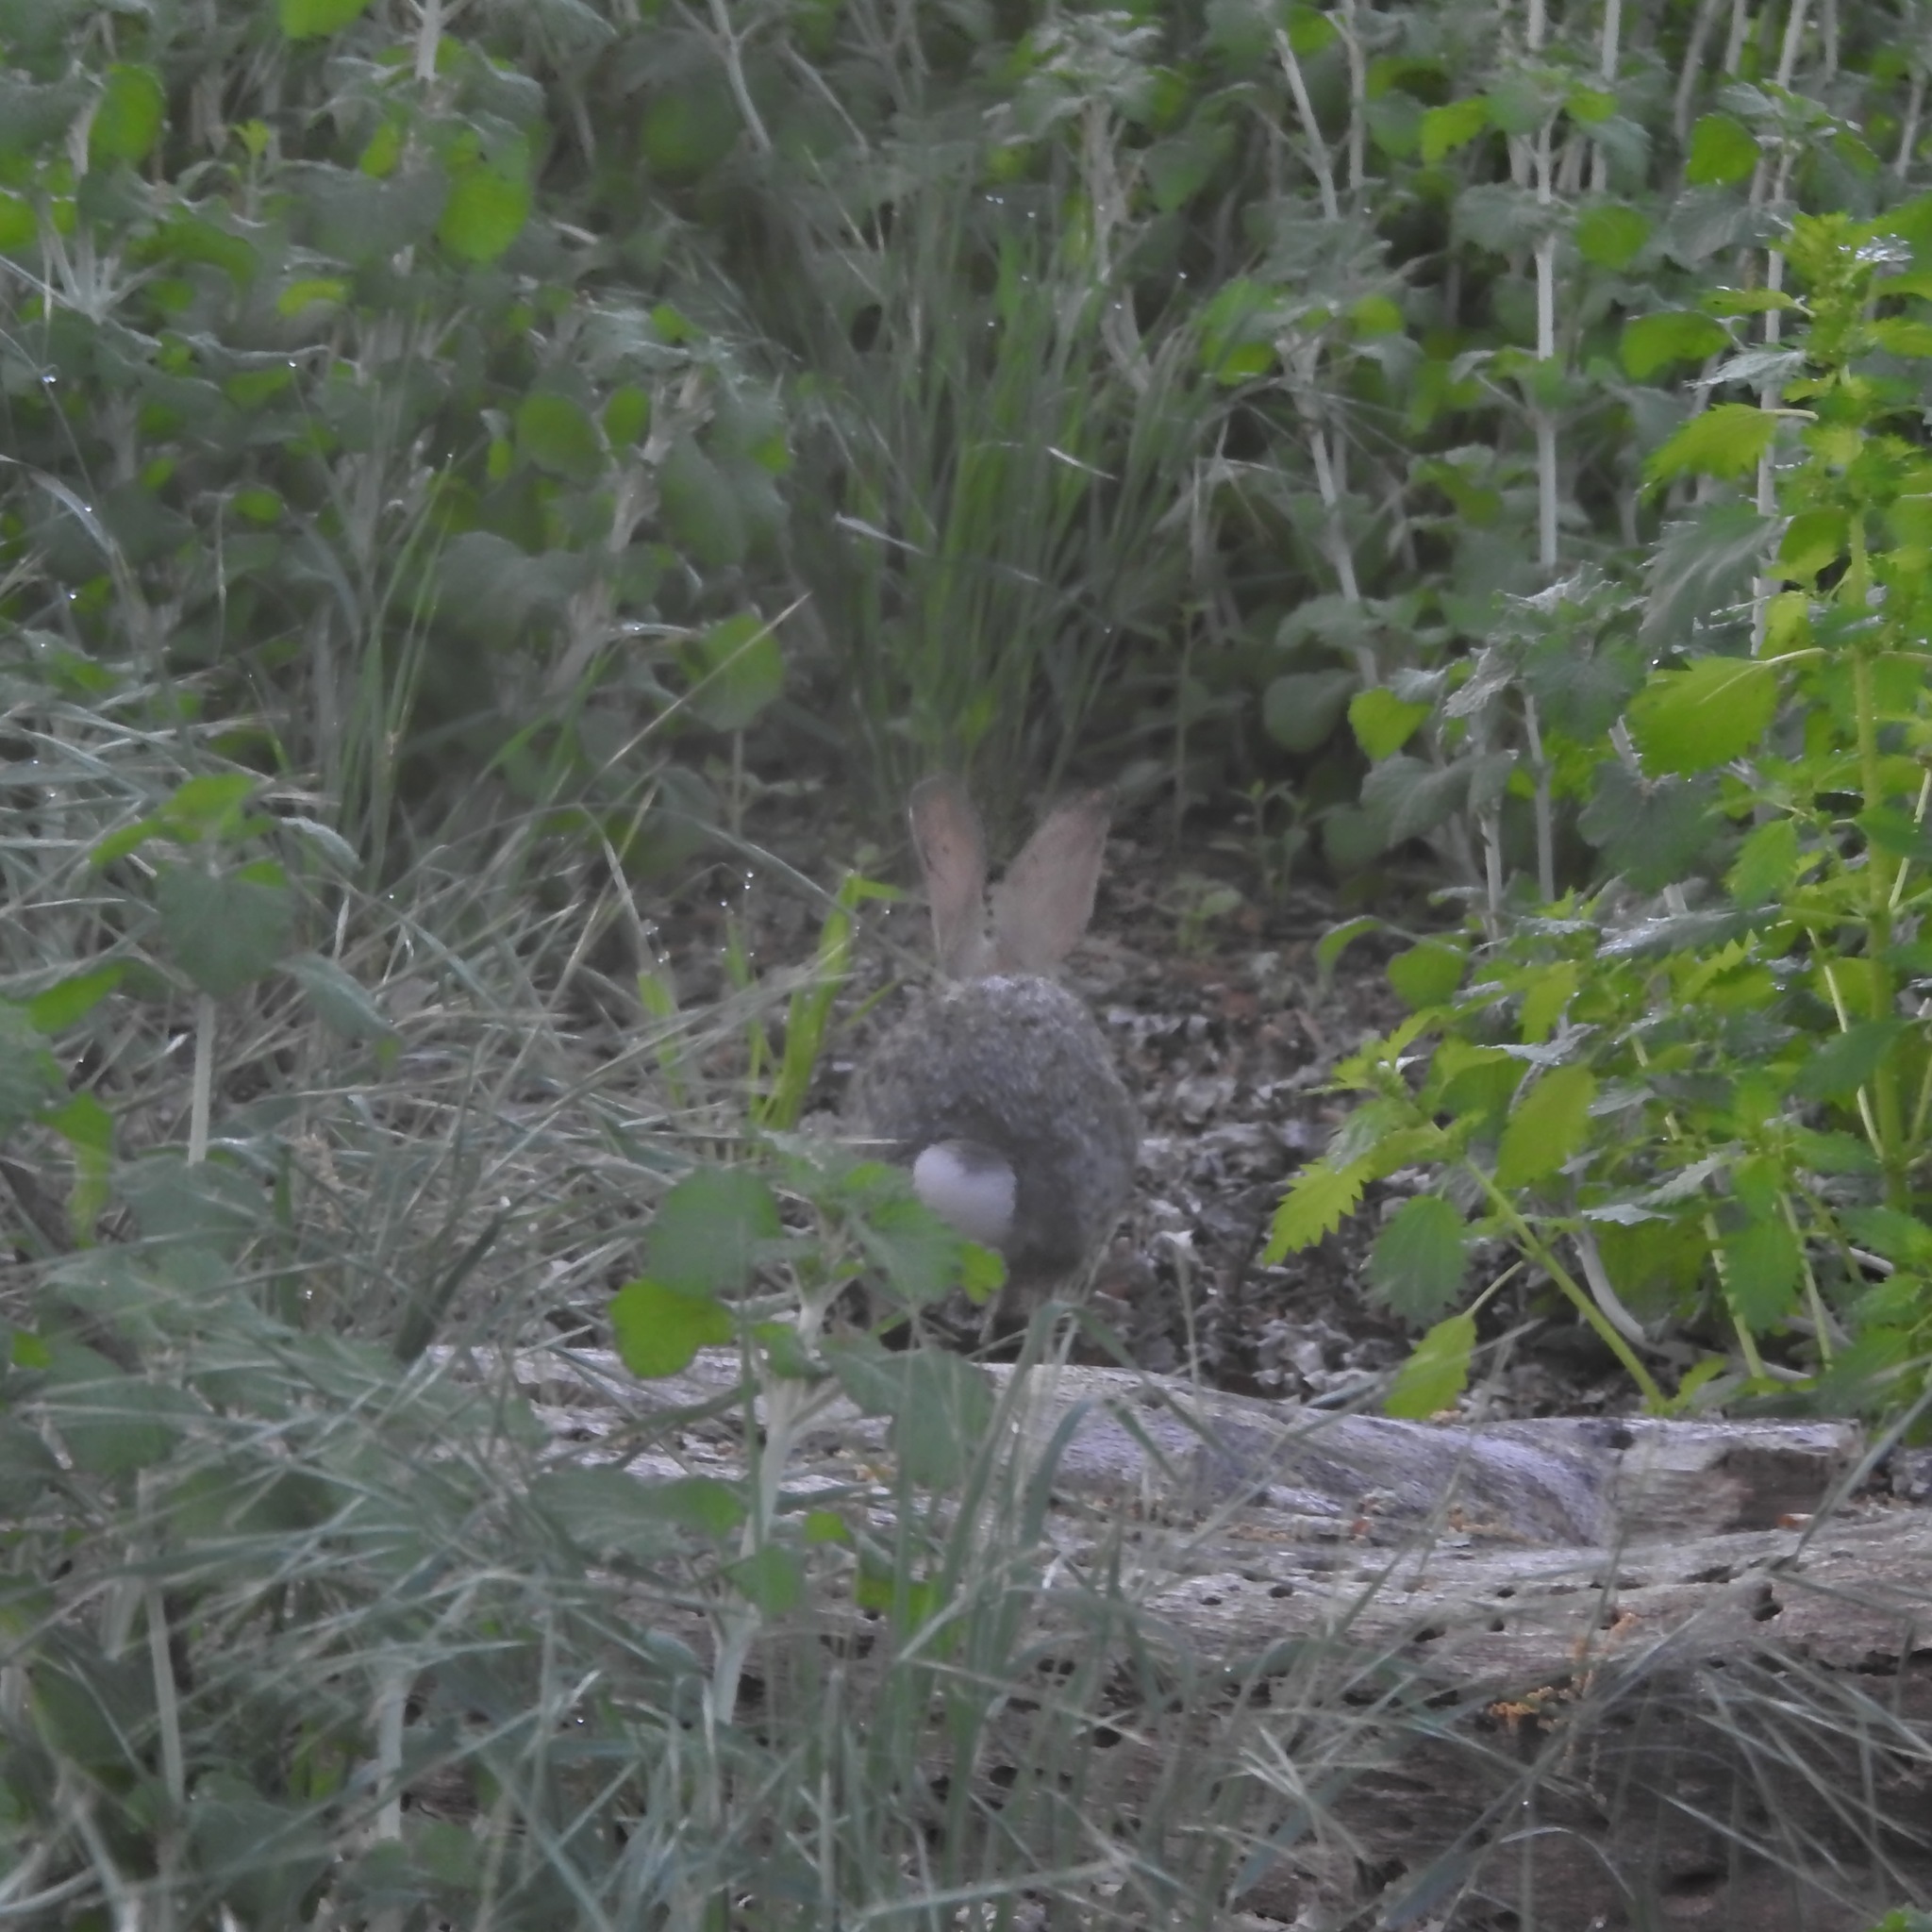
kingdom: Animalia
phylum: Chordata
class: Mammalia
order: Lagomorpha
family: Leporidae
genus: Sylvilagus
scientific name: Sylvilagus audubonii
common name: Desert cottontail
